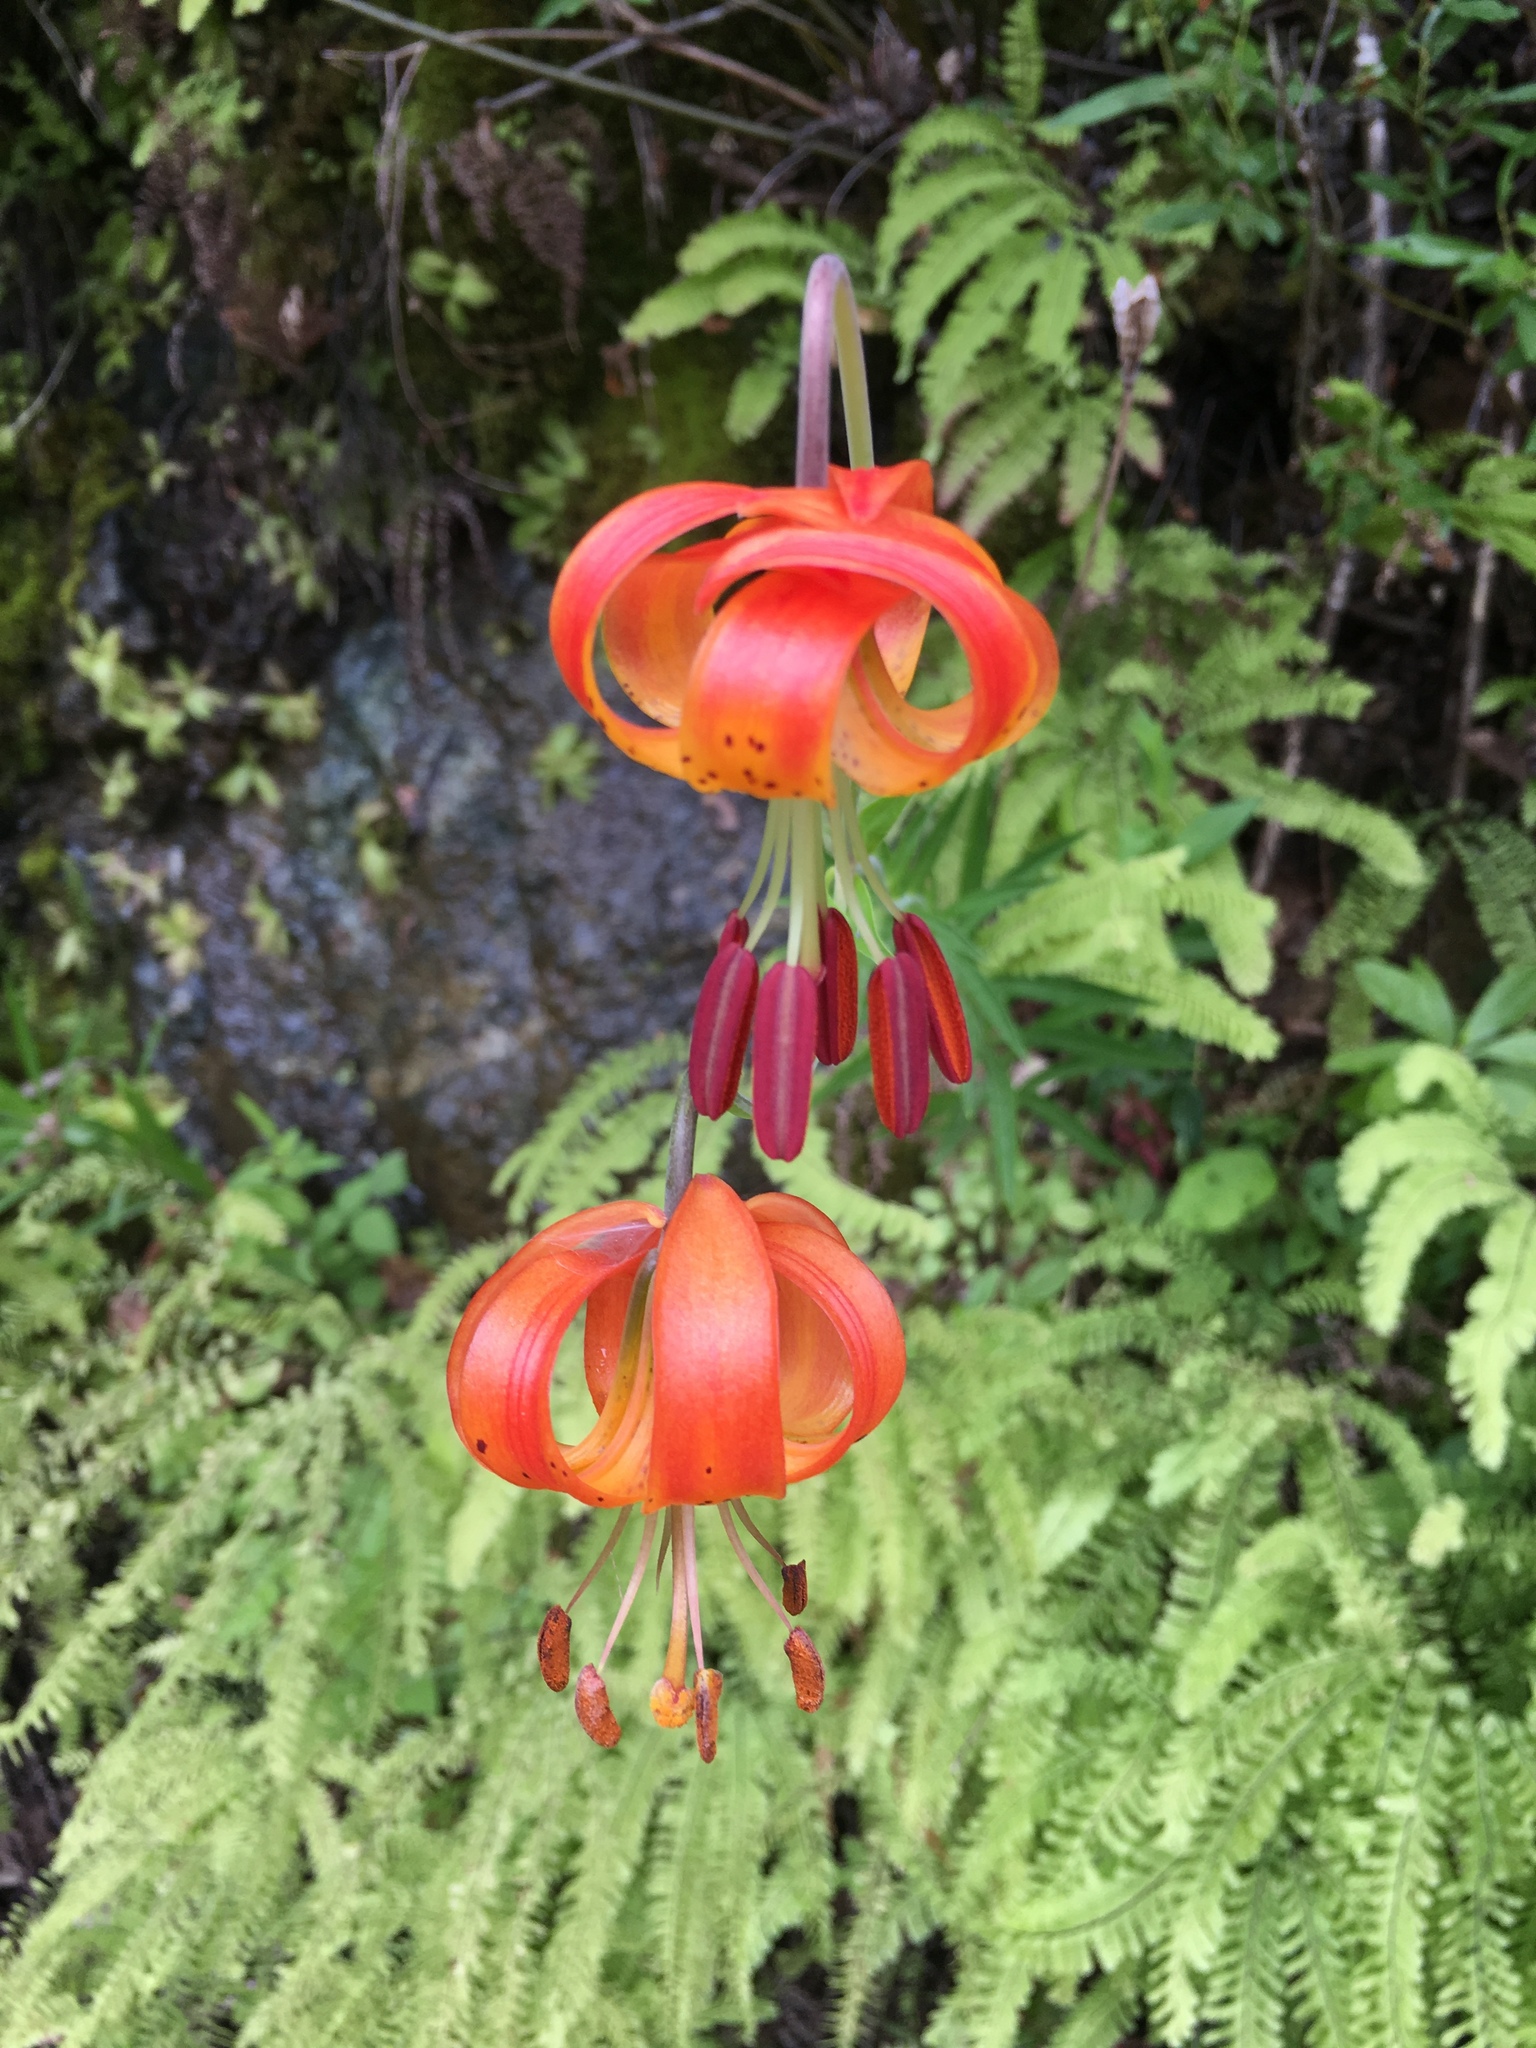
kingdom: Plantae
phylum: Tracheophyta
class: Liliopsida
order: Liliales
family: Liliaceae
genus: Lilium
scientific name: Lilium pardalinum
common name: Panther lily
